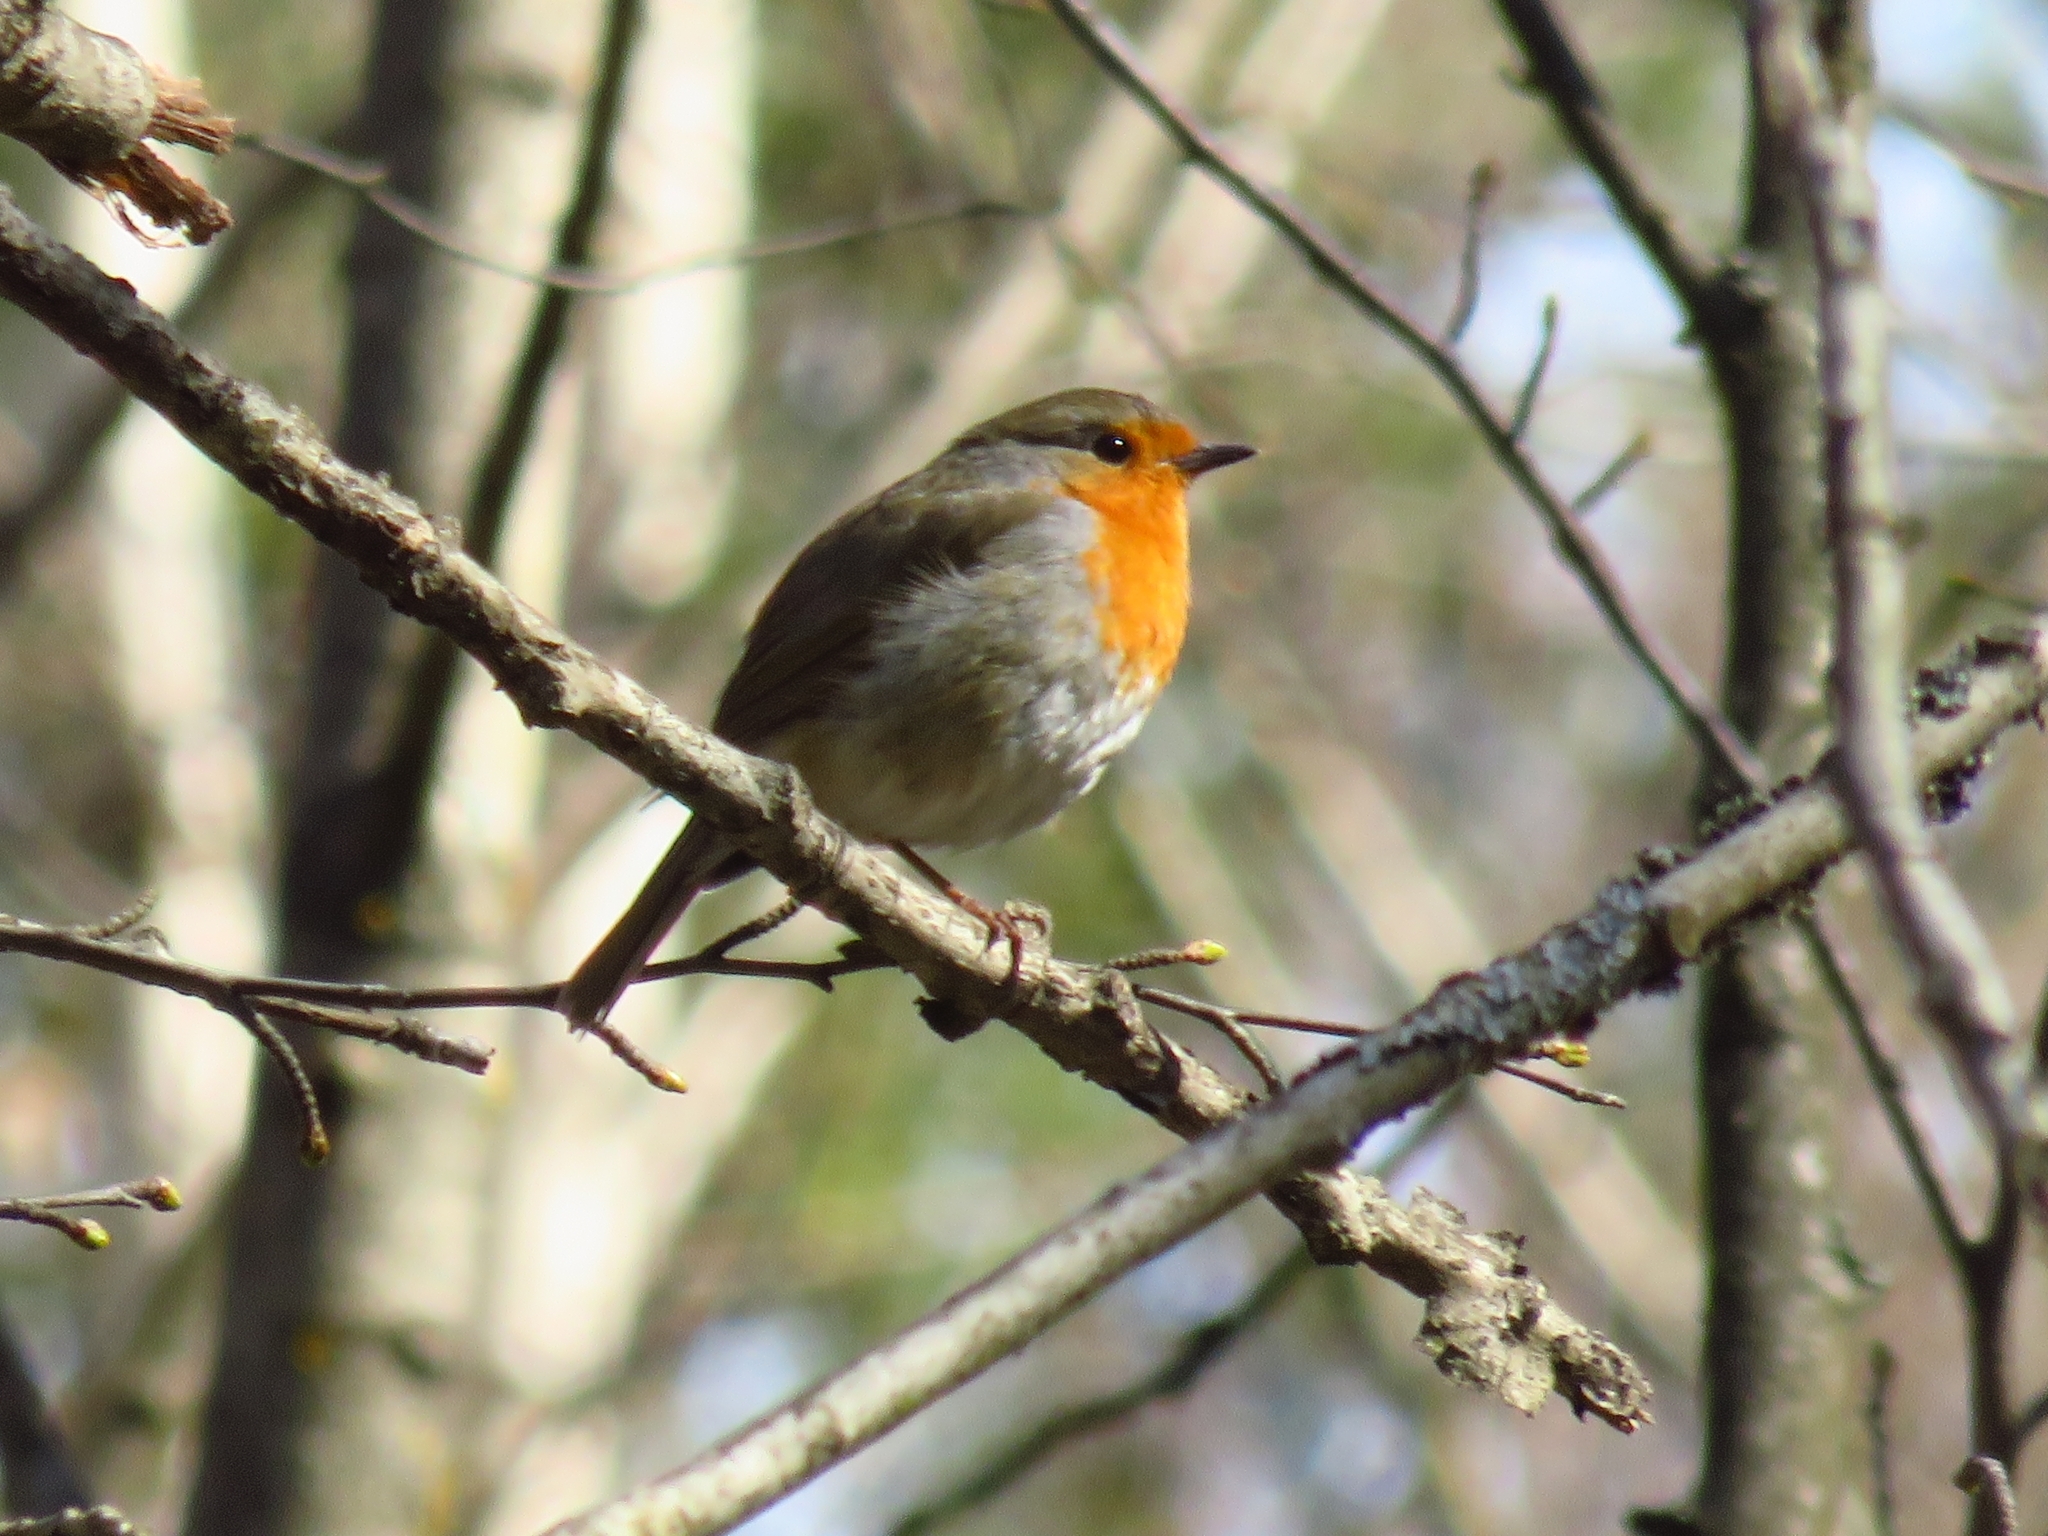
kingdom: Animalia
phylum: Chordata
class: Aves
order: Passeriformes
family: Muscicapidae
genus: Erithacus
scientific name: Erithacus rubecula
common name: European robin
